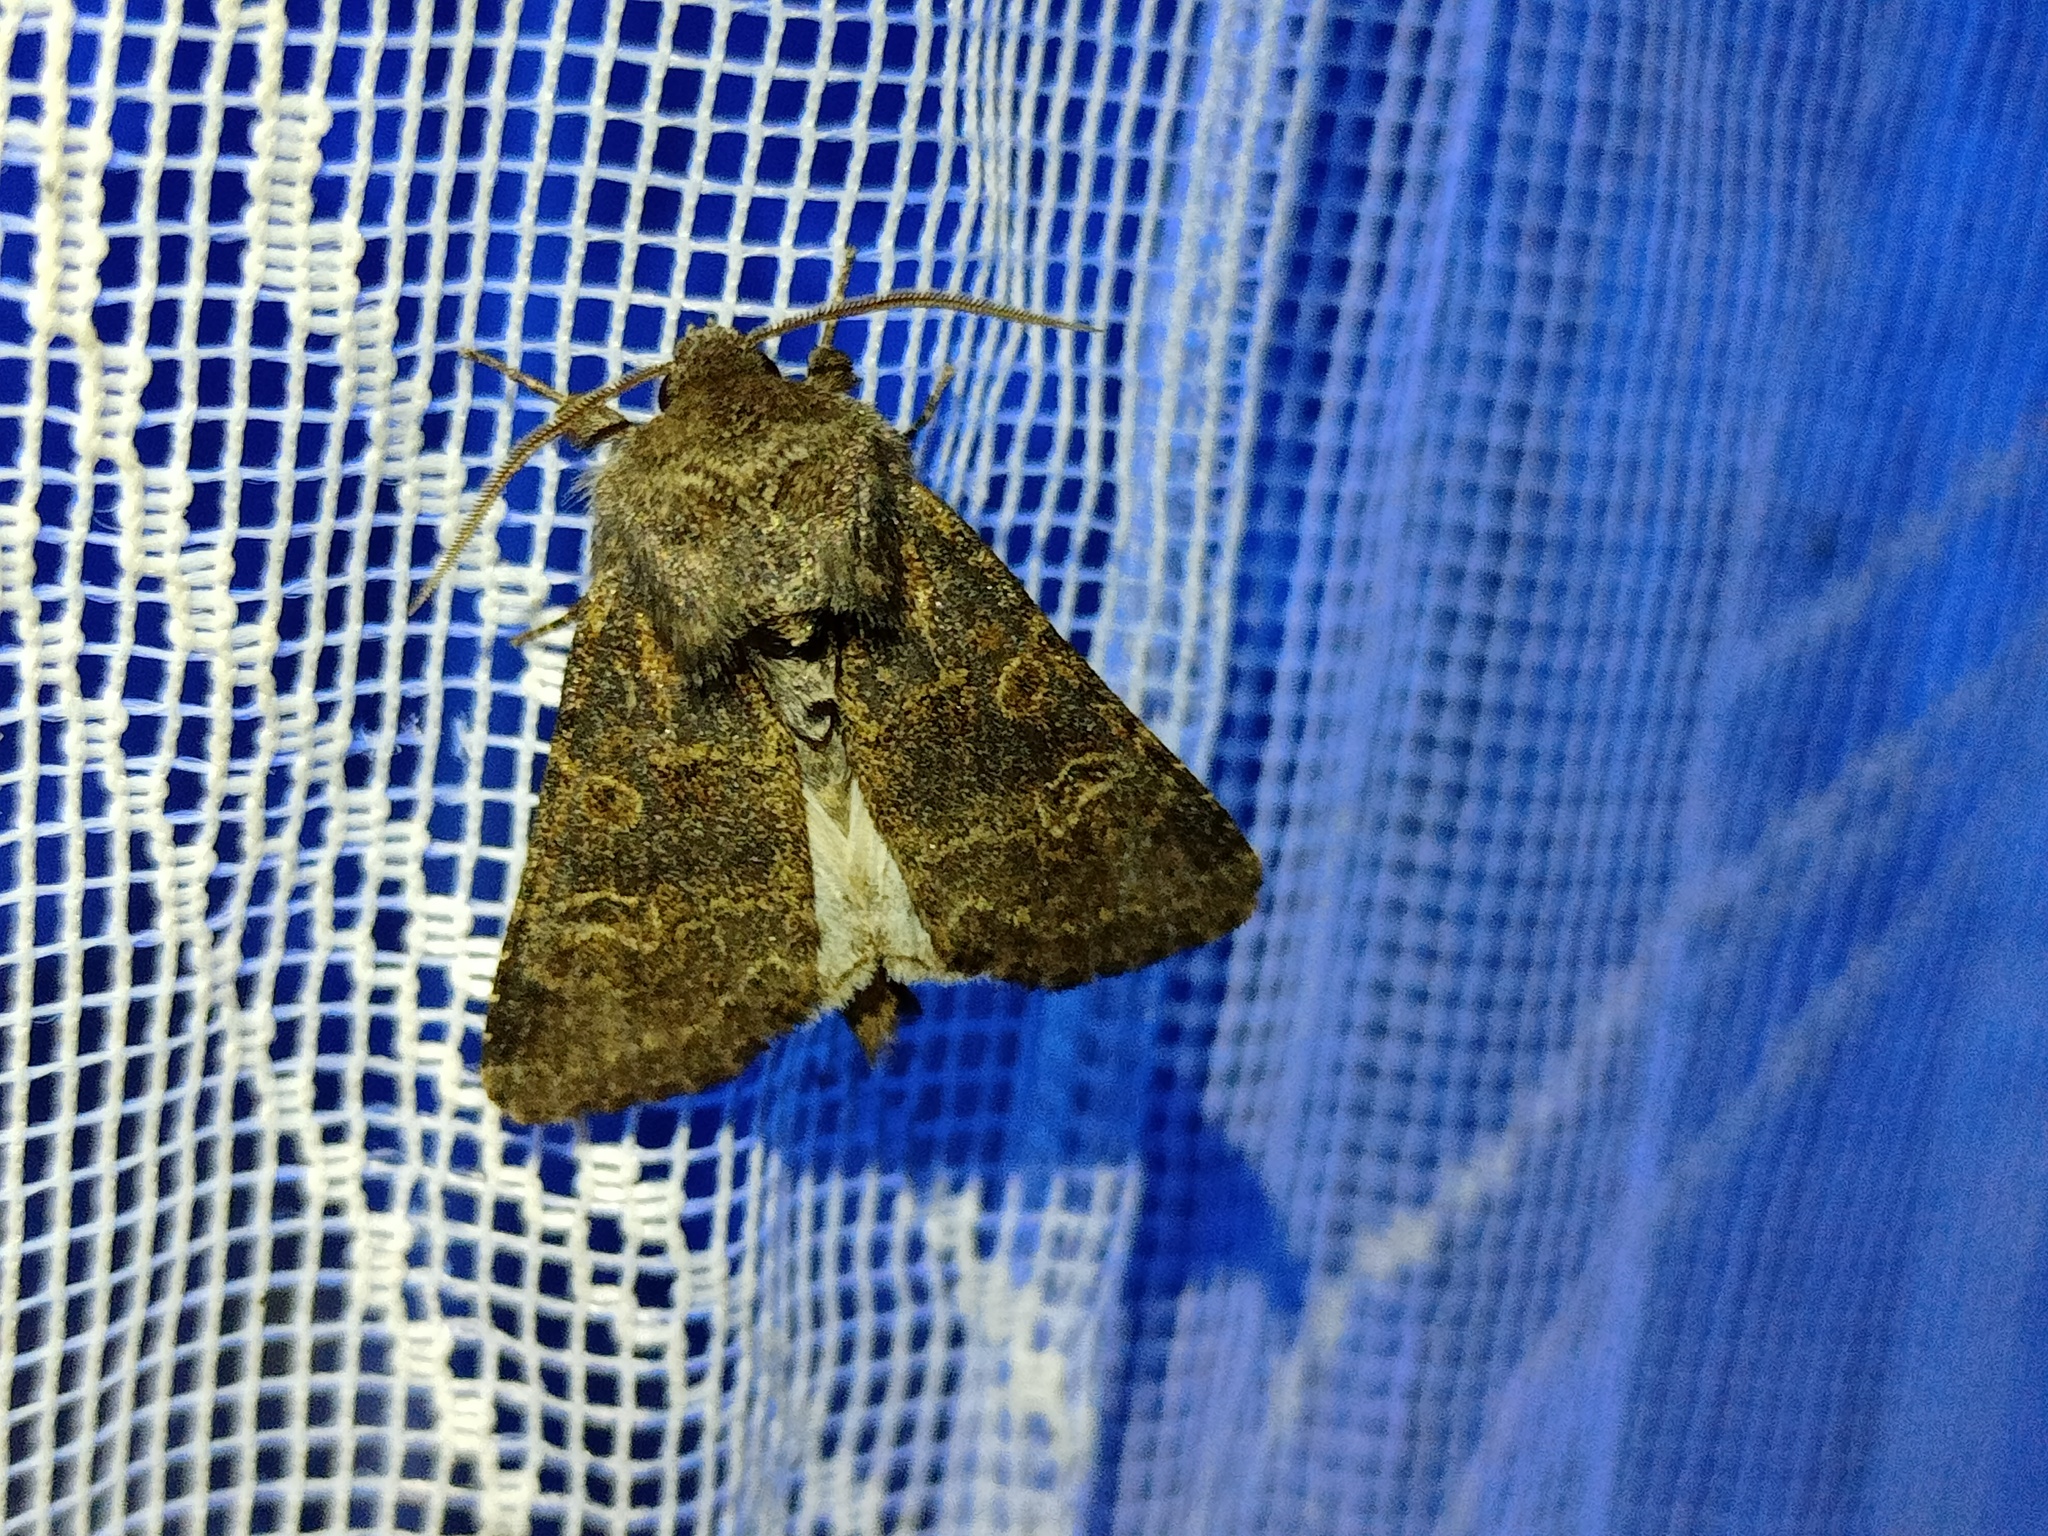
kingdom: Animalia
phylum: Arthropoda
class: Insecta
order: Lepidoptera
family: Noctuidae
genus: Tholera
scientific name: Tholera cespitis
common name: Hedge rustic
